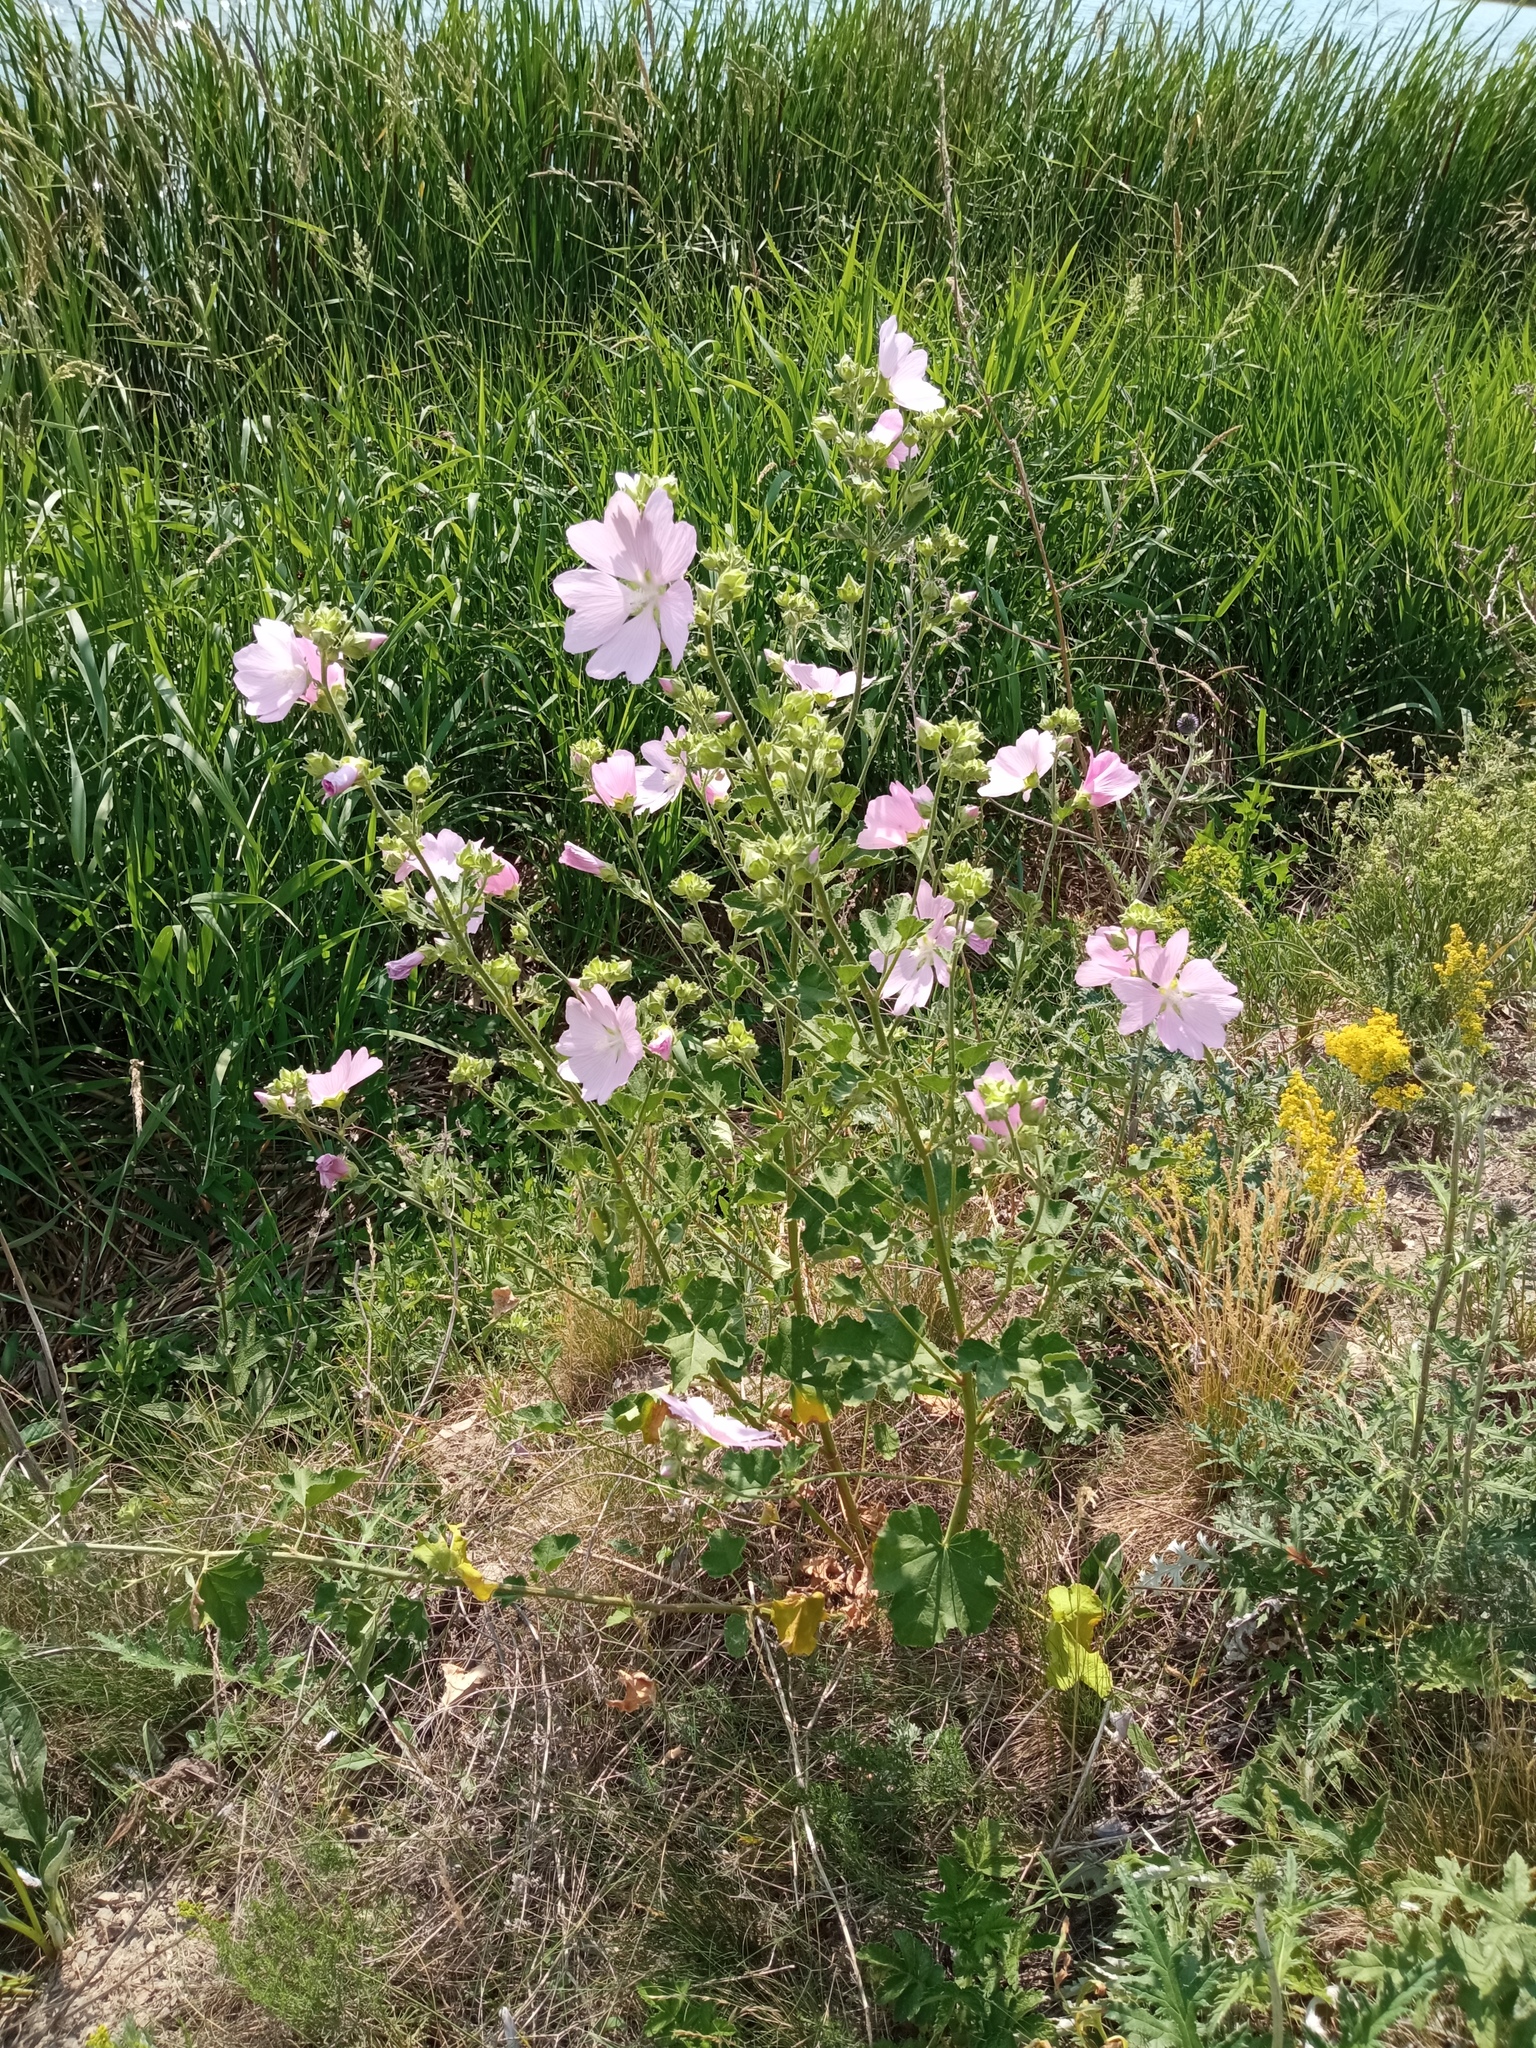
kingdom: Plantae
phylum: Tracheophyta
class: Magnoliopsida
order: Malvales
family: Malvaceae
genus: Malva
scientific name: Malva thuringiaca
